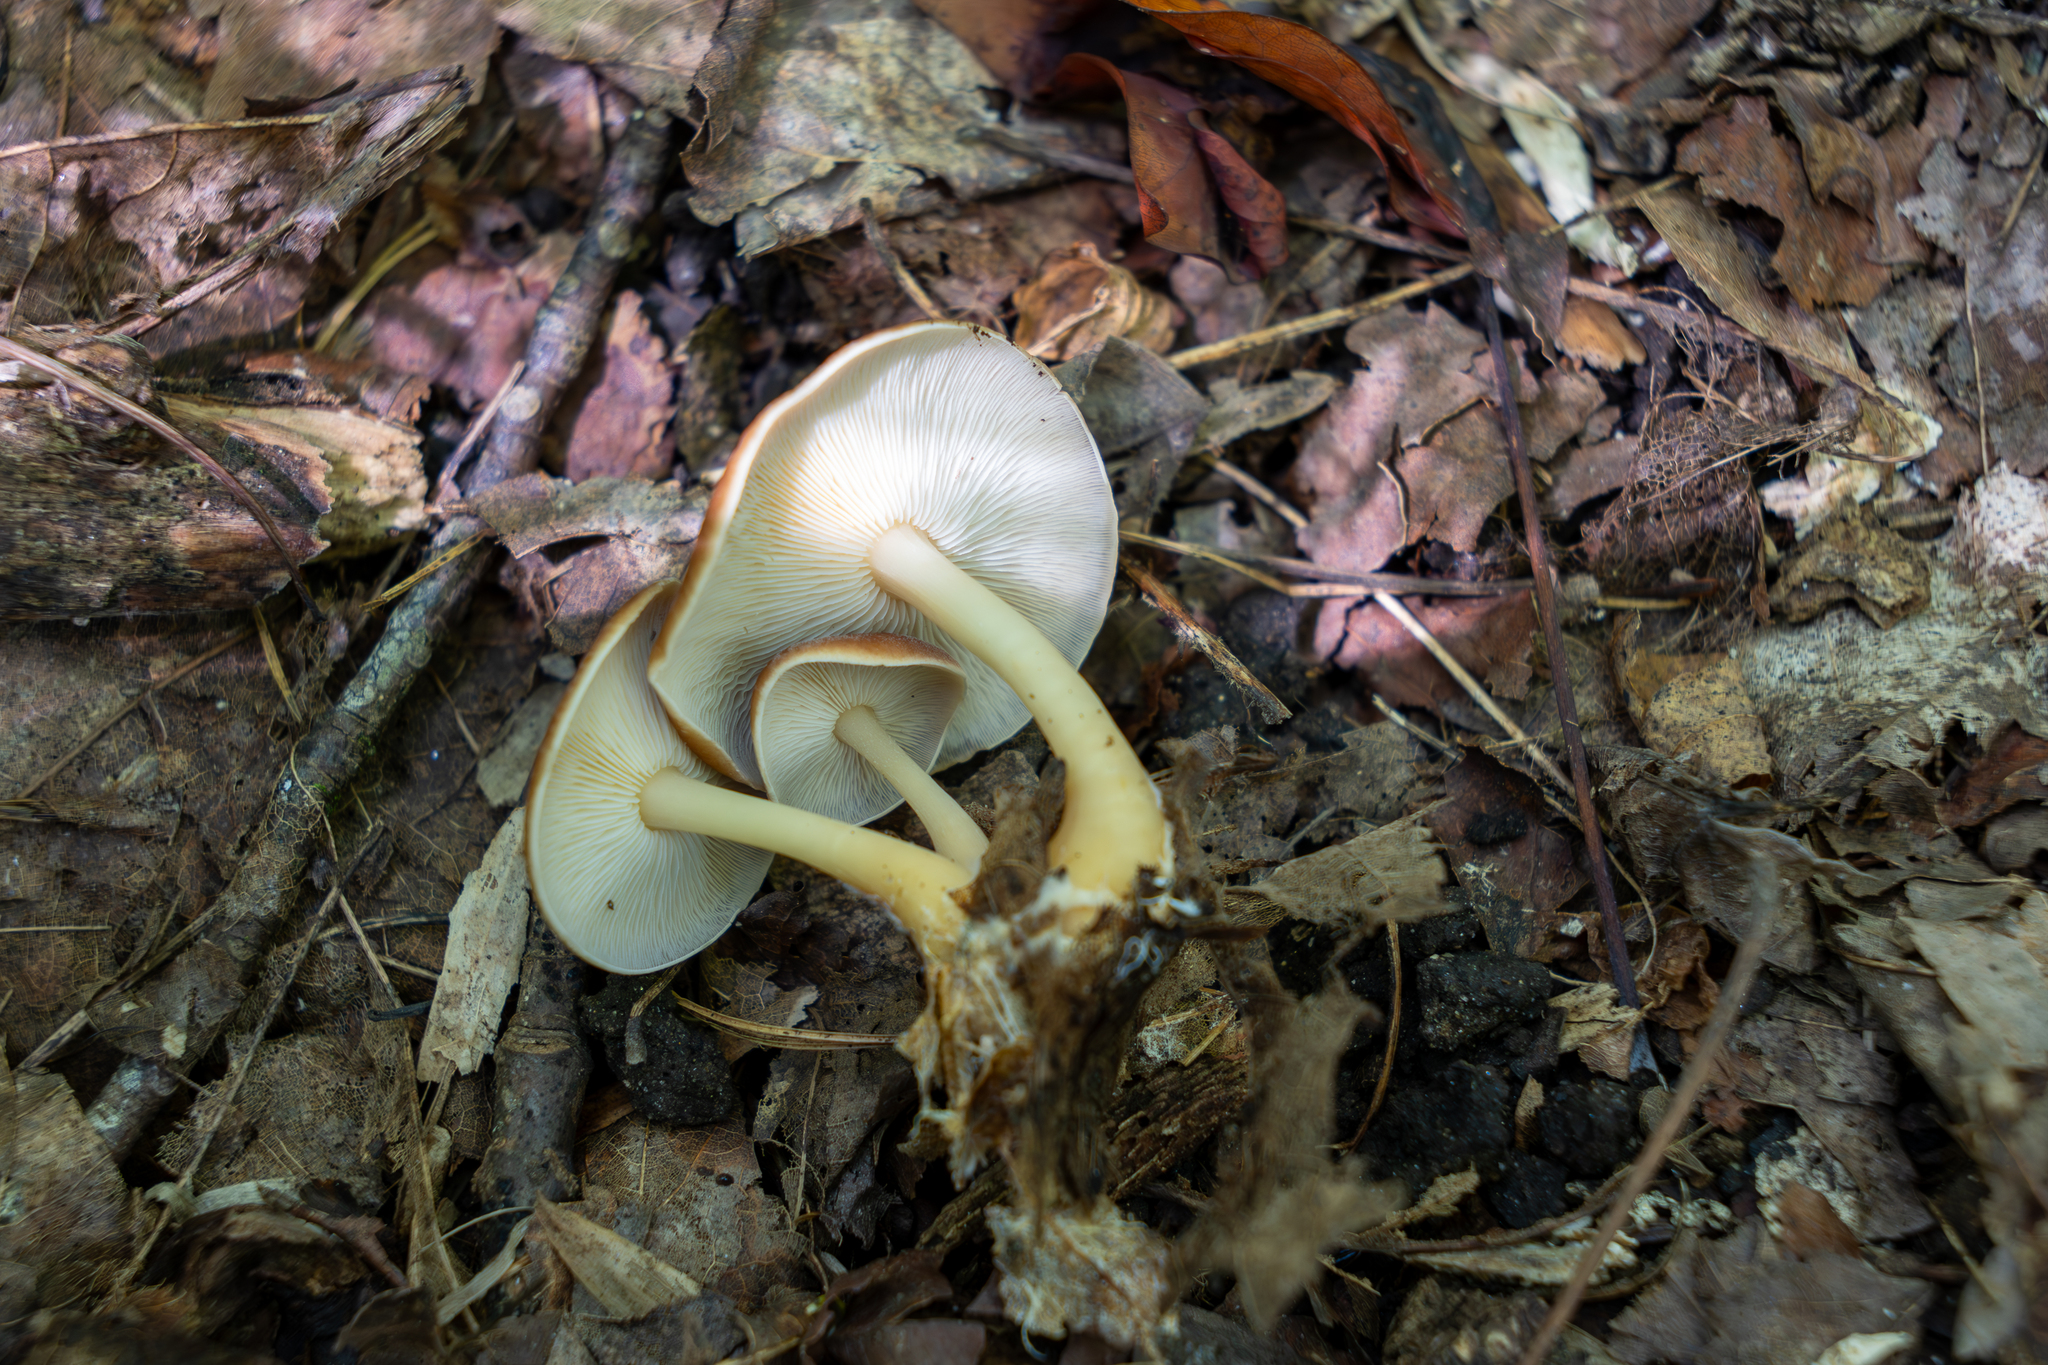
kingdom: Fungi
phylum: Basidiomycota
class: Agaricomycetes
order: Agaricales
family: Omphalotaceae
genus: Gymnopus
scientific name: Gymnopus dryophilus
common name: Penny top
